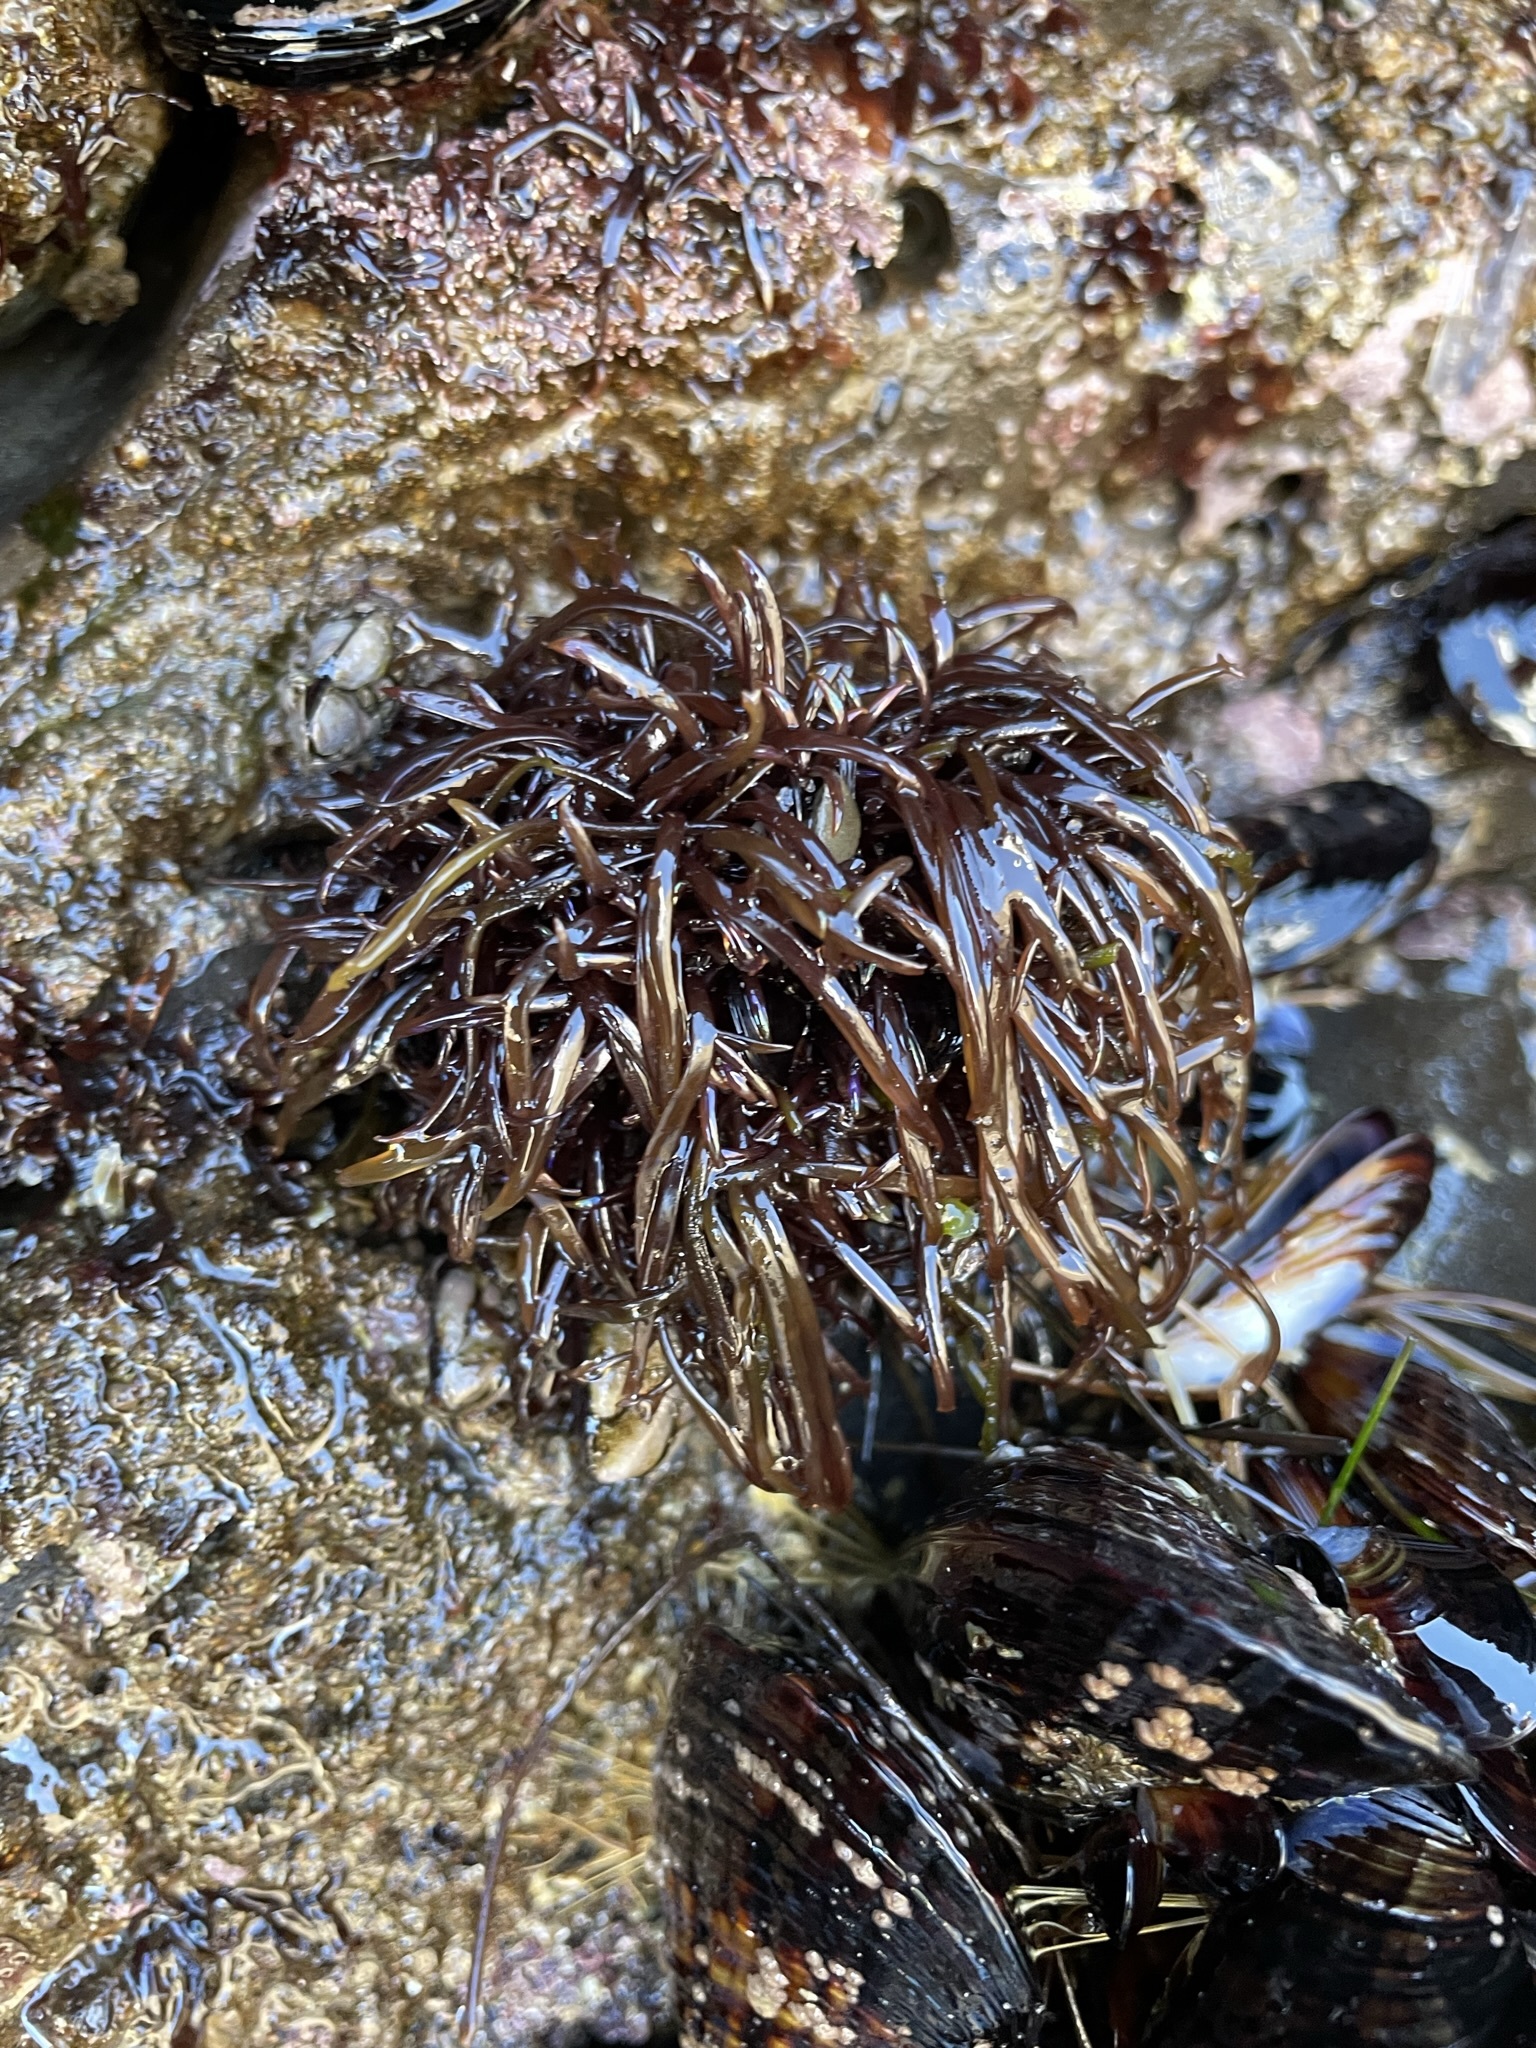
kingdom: Plantae
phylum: Rhodophyta
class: Florideophyceae
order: Gigartinales
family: Gigartinaceae
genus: Chondracanthus
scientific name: Chondracanthus canaliculatus
